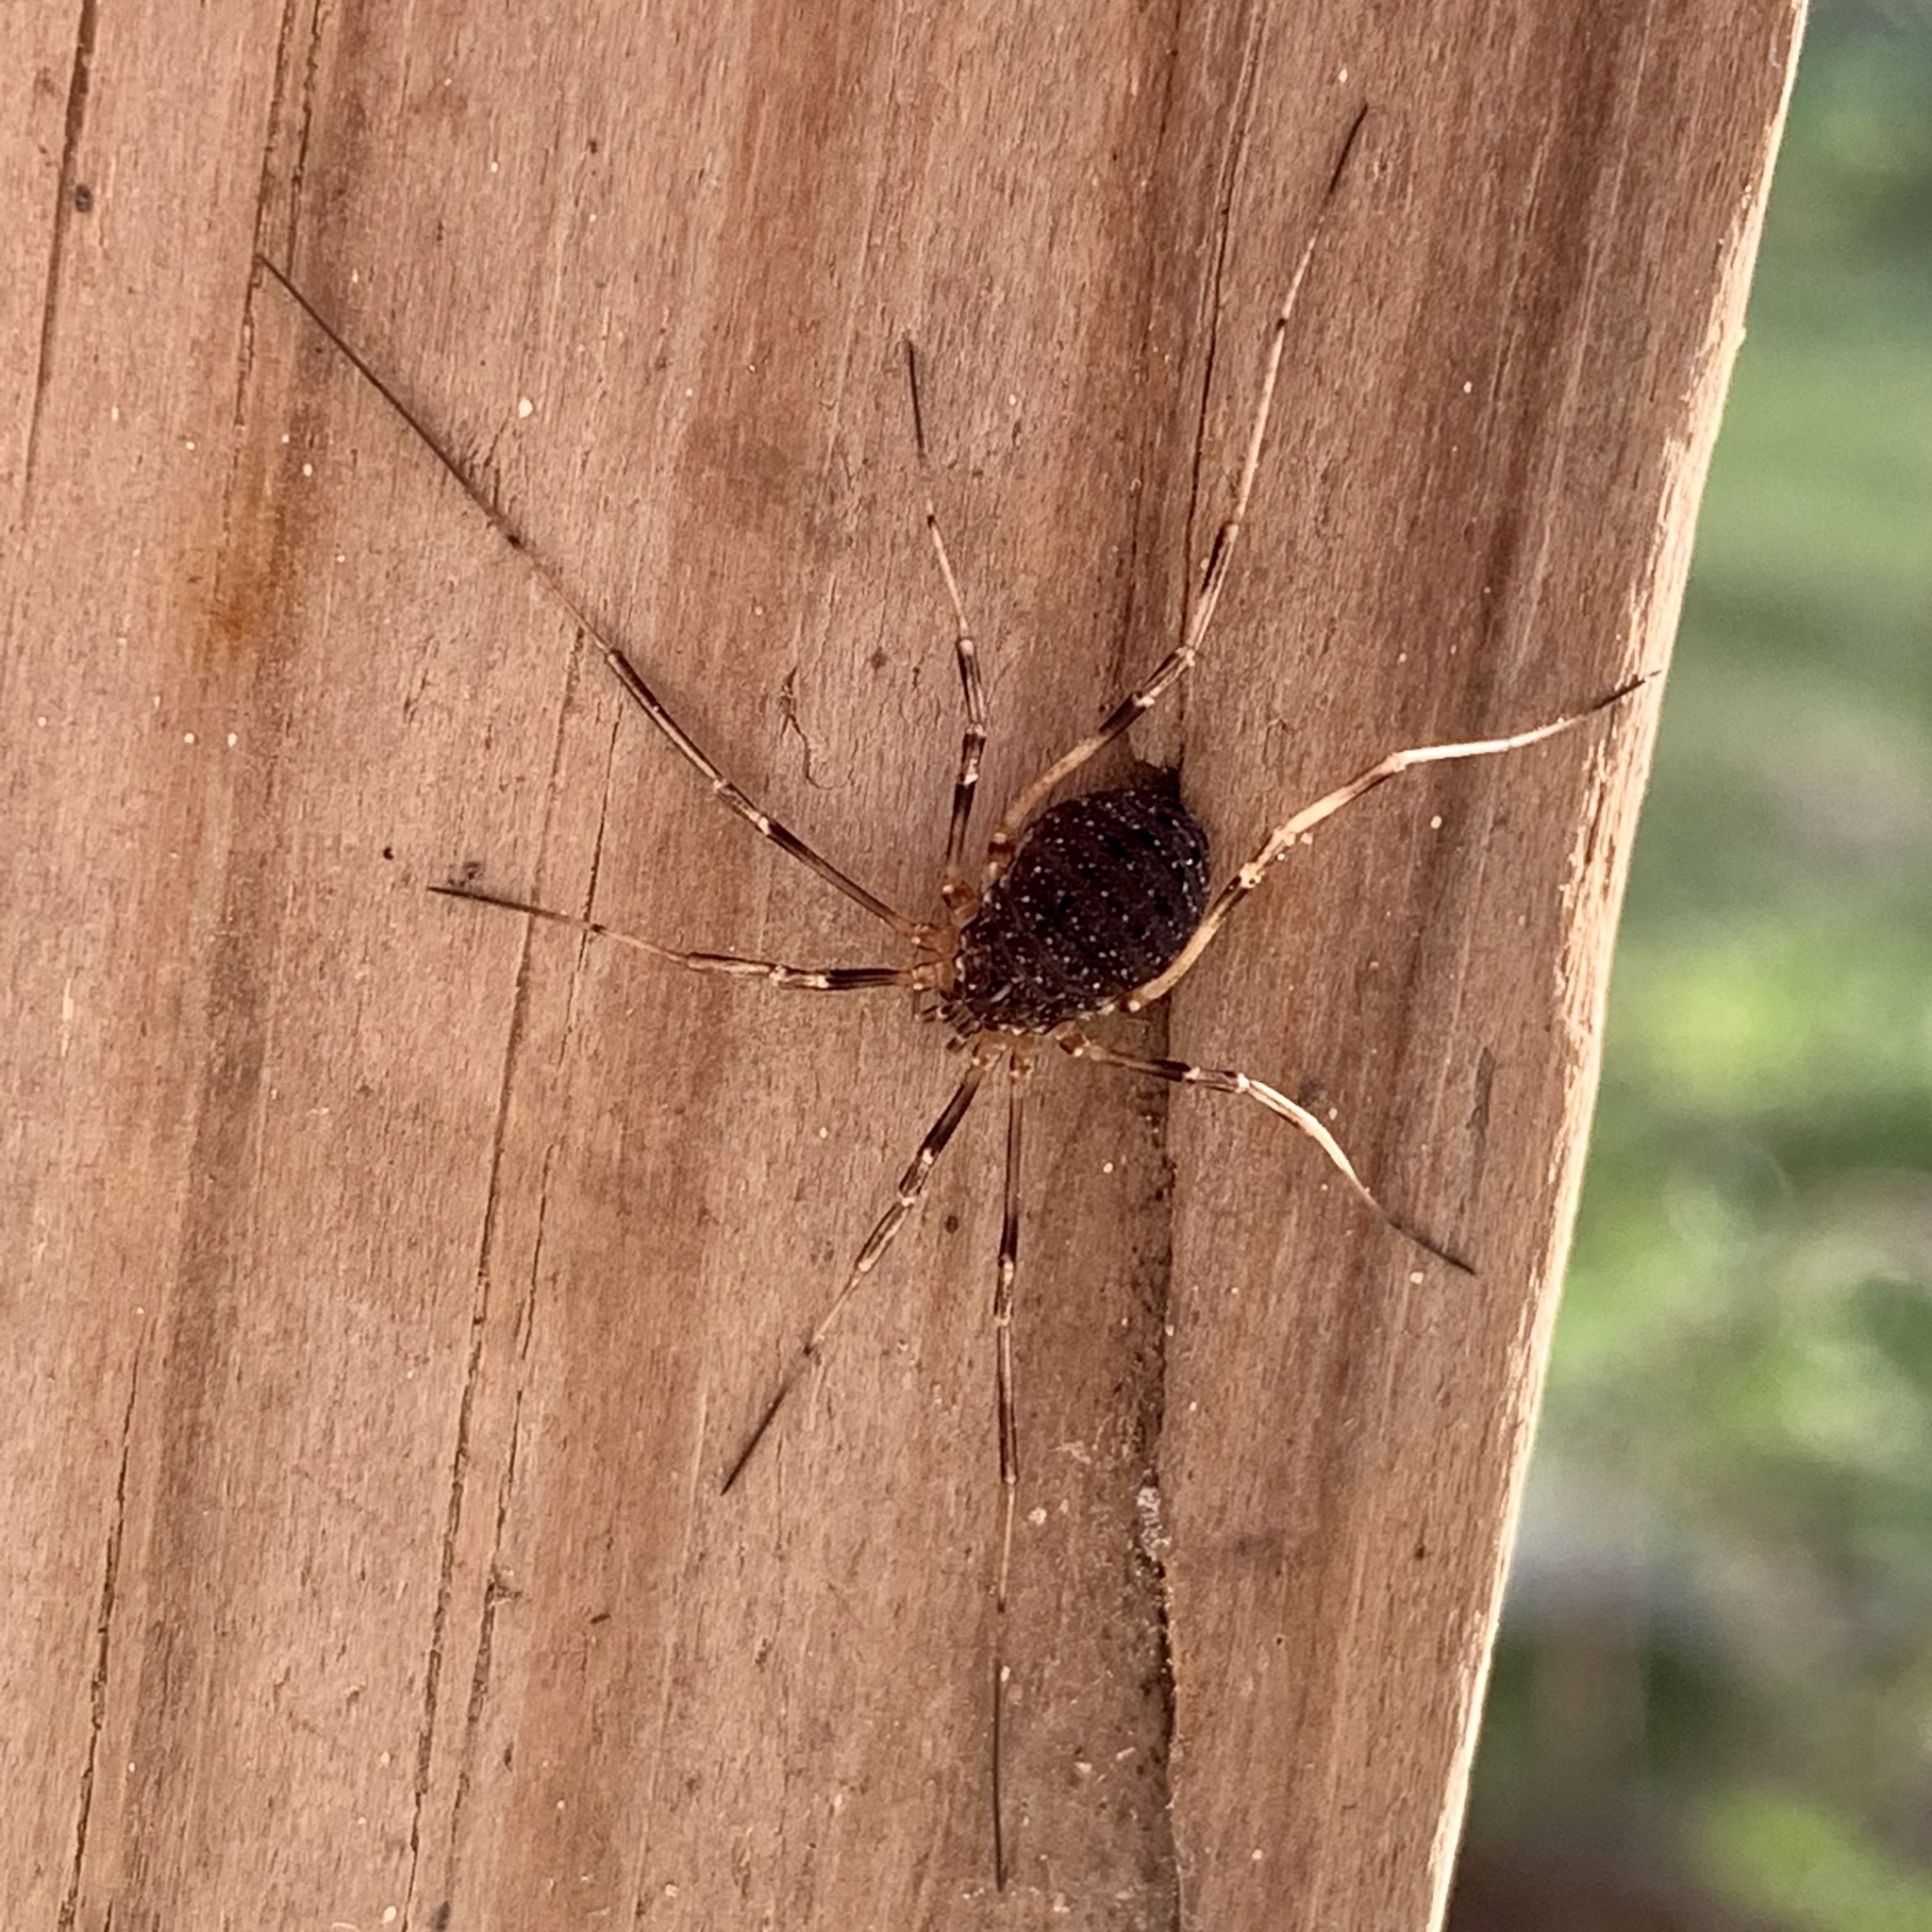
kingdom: Animalia
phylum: Arthropoda
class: Arachnida
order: Opiliones
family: Sclerosomatidae
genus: Eumesosoma
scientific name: Eumesosoma roeweri
